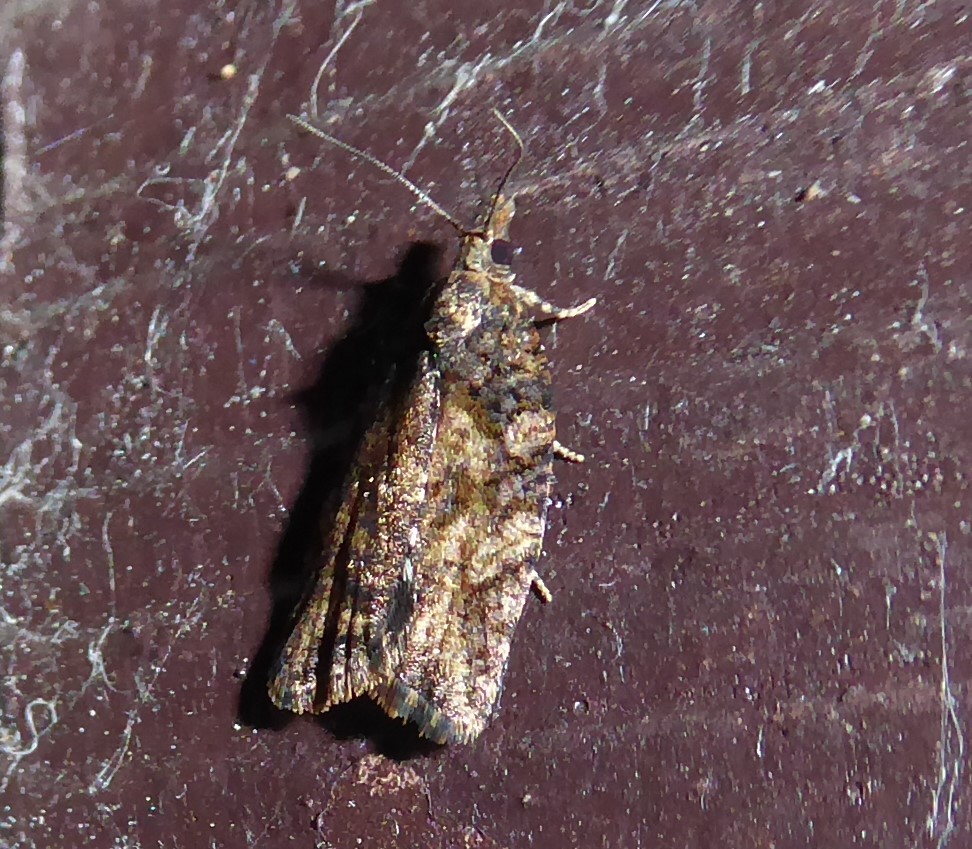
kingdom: Animalia
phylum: Arthropoda
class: Insecta
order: Lepidoptera
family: Tortricidae
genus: Capua
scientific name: Capua intractana
